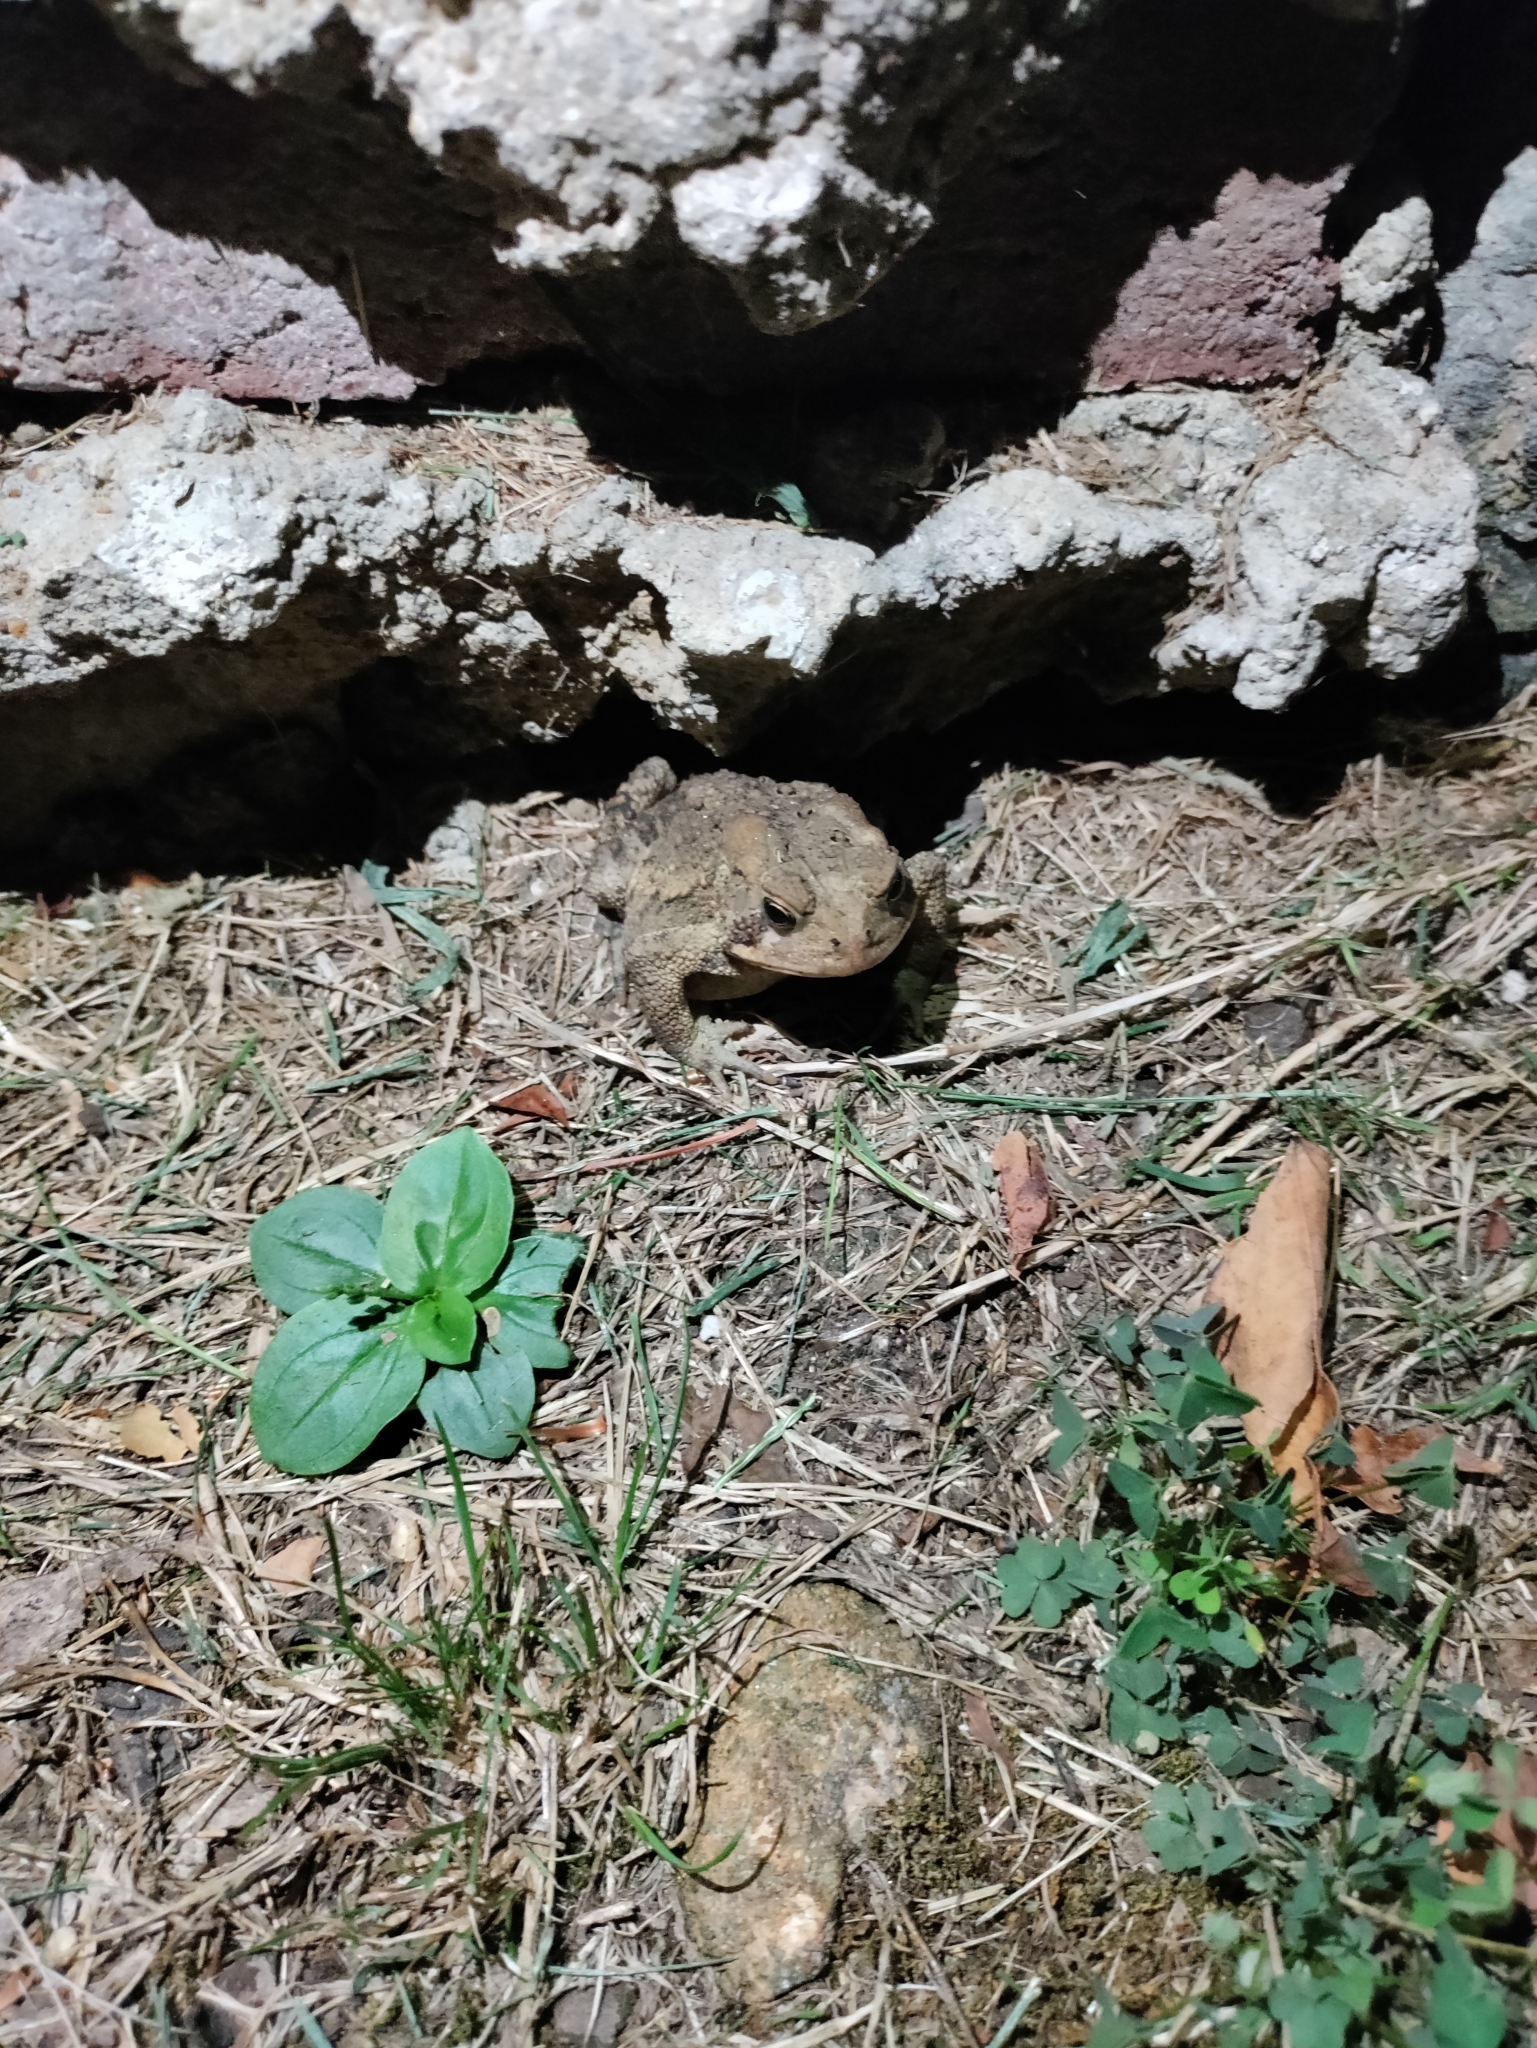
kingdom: Animalia
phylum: Chordata
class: Amphibia
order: Anura
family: Bufonidae
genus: Anaxyrus
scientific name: Anaxyrus americanus
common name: American toad
